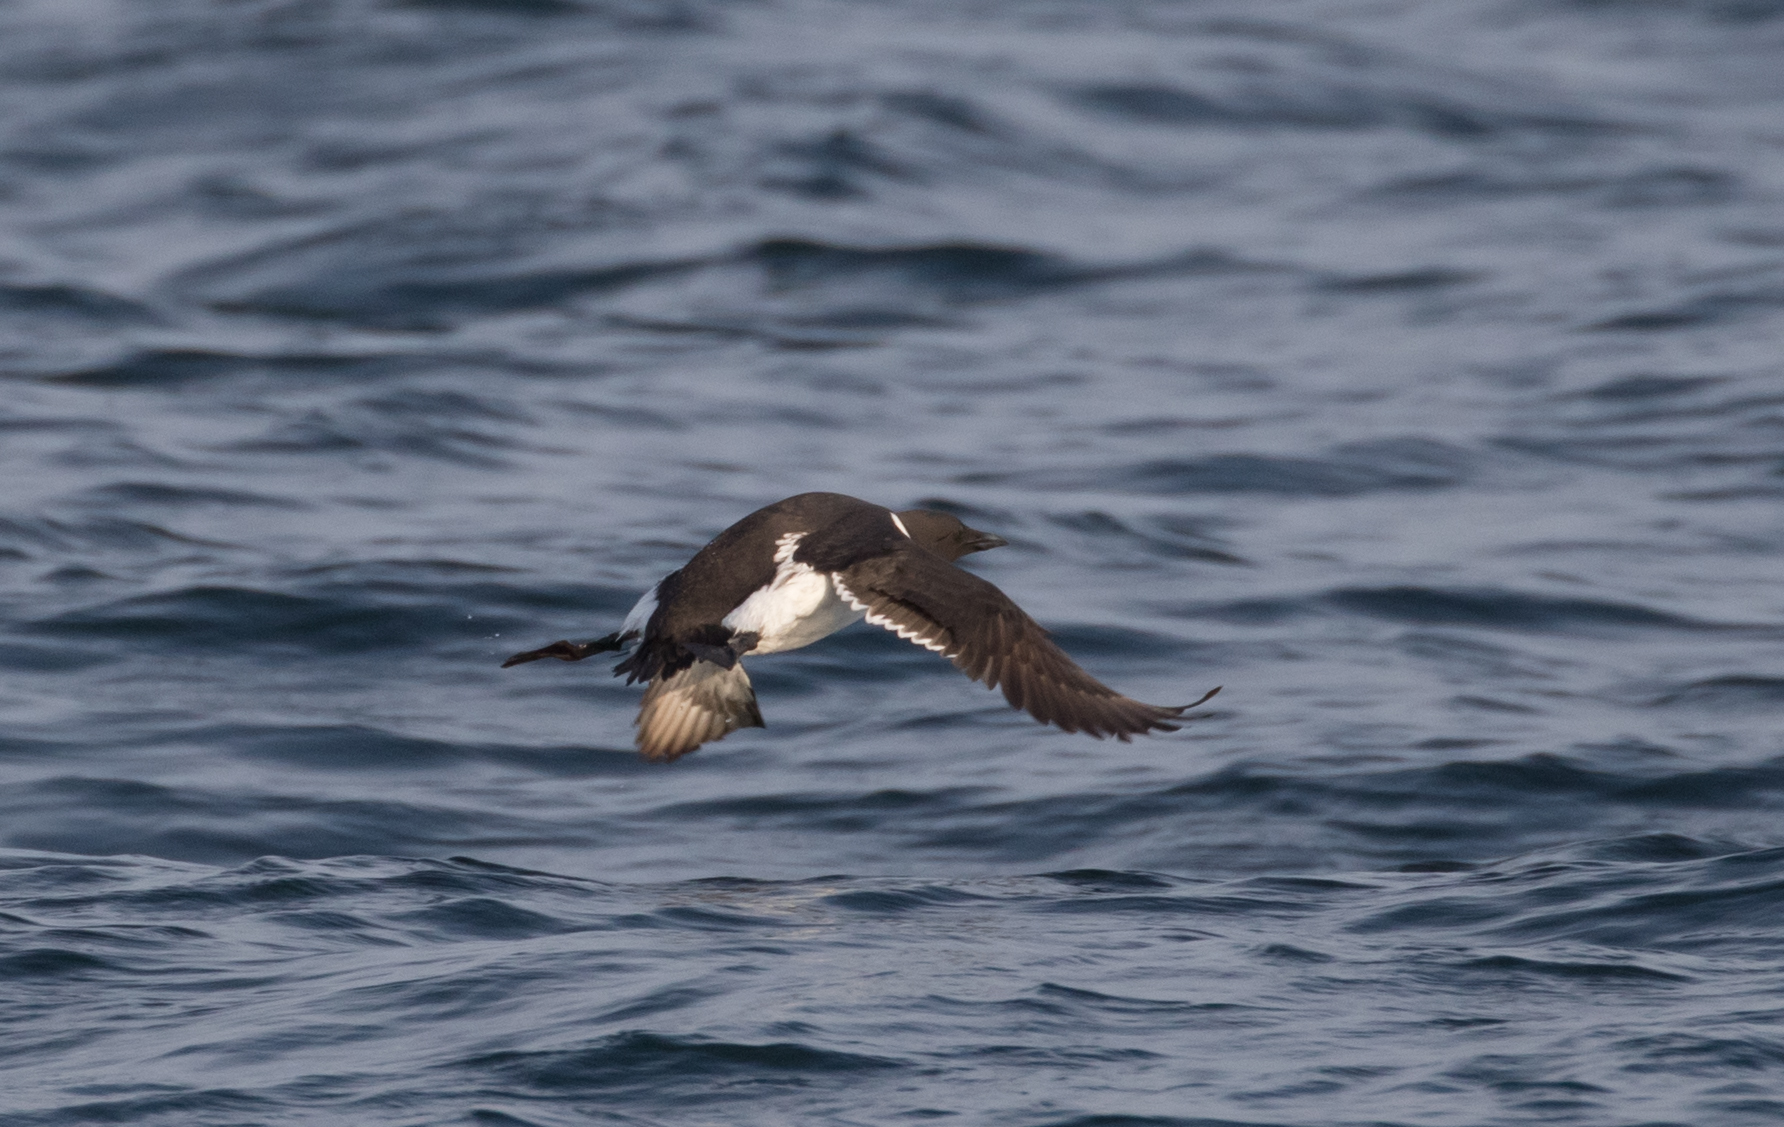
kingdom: Animalia
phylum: Chordata
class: Aves
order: Charadriiformes
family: Alcidae
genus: Uria
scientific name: Uria aalge
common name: Common murre
